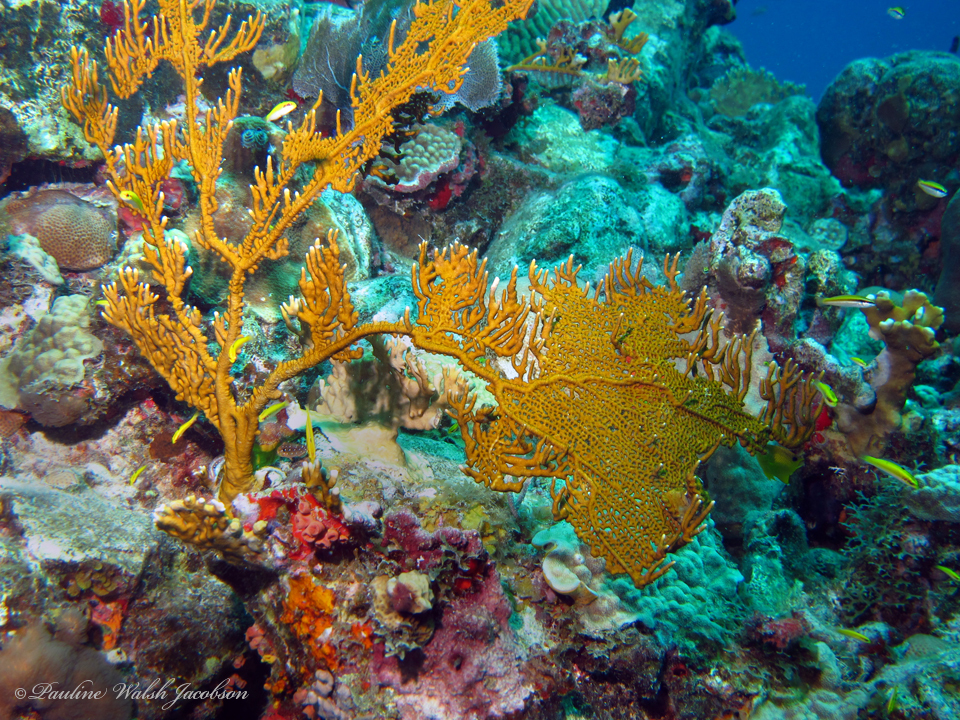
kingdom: Animalia
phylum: Cnidaria
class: Hydrozoa
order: Anthoathecata
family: Milleporidae
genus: Millepora
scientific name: Millepora alcicornis
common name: Branching fire coral
